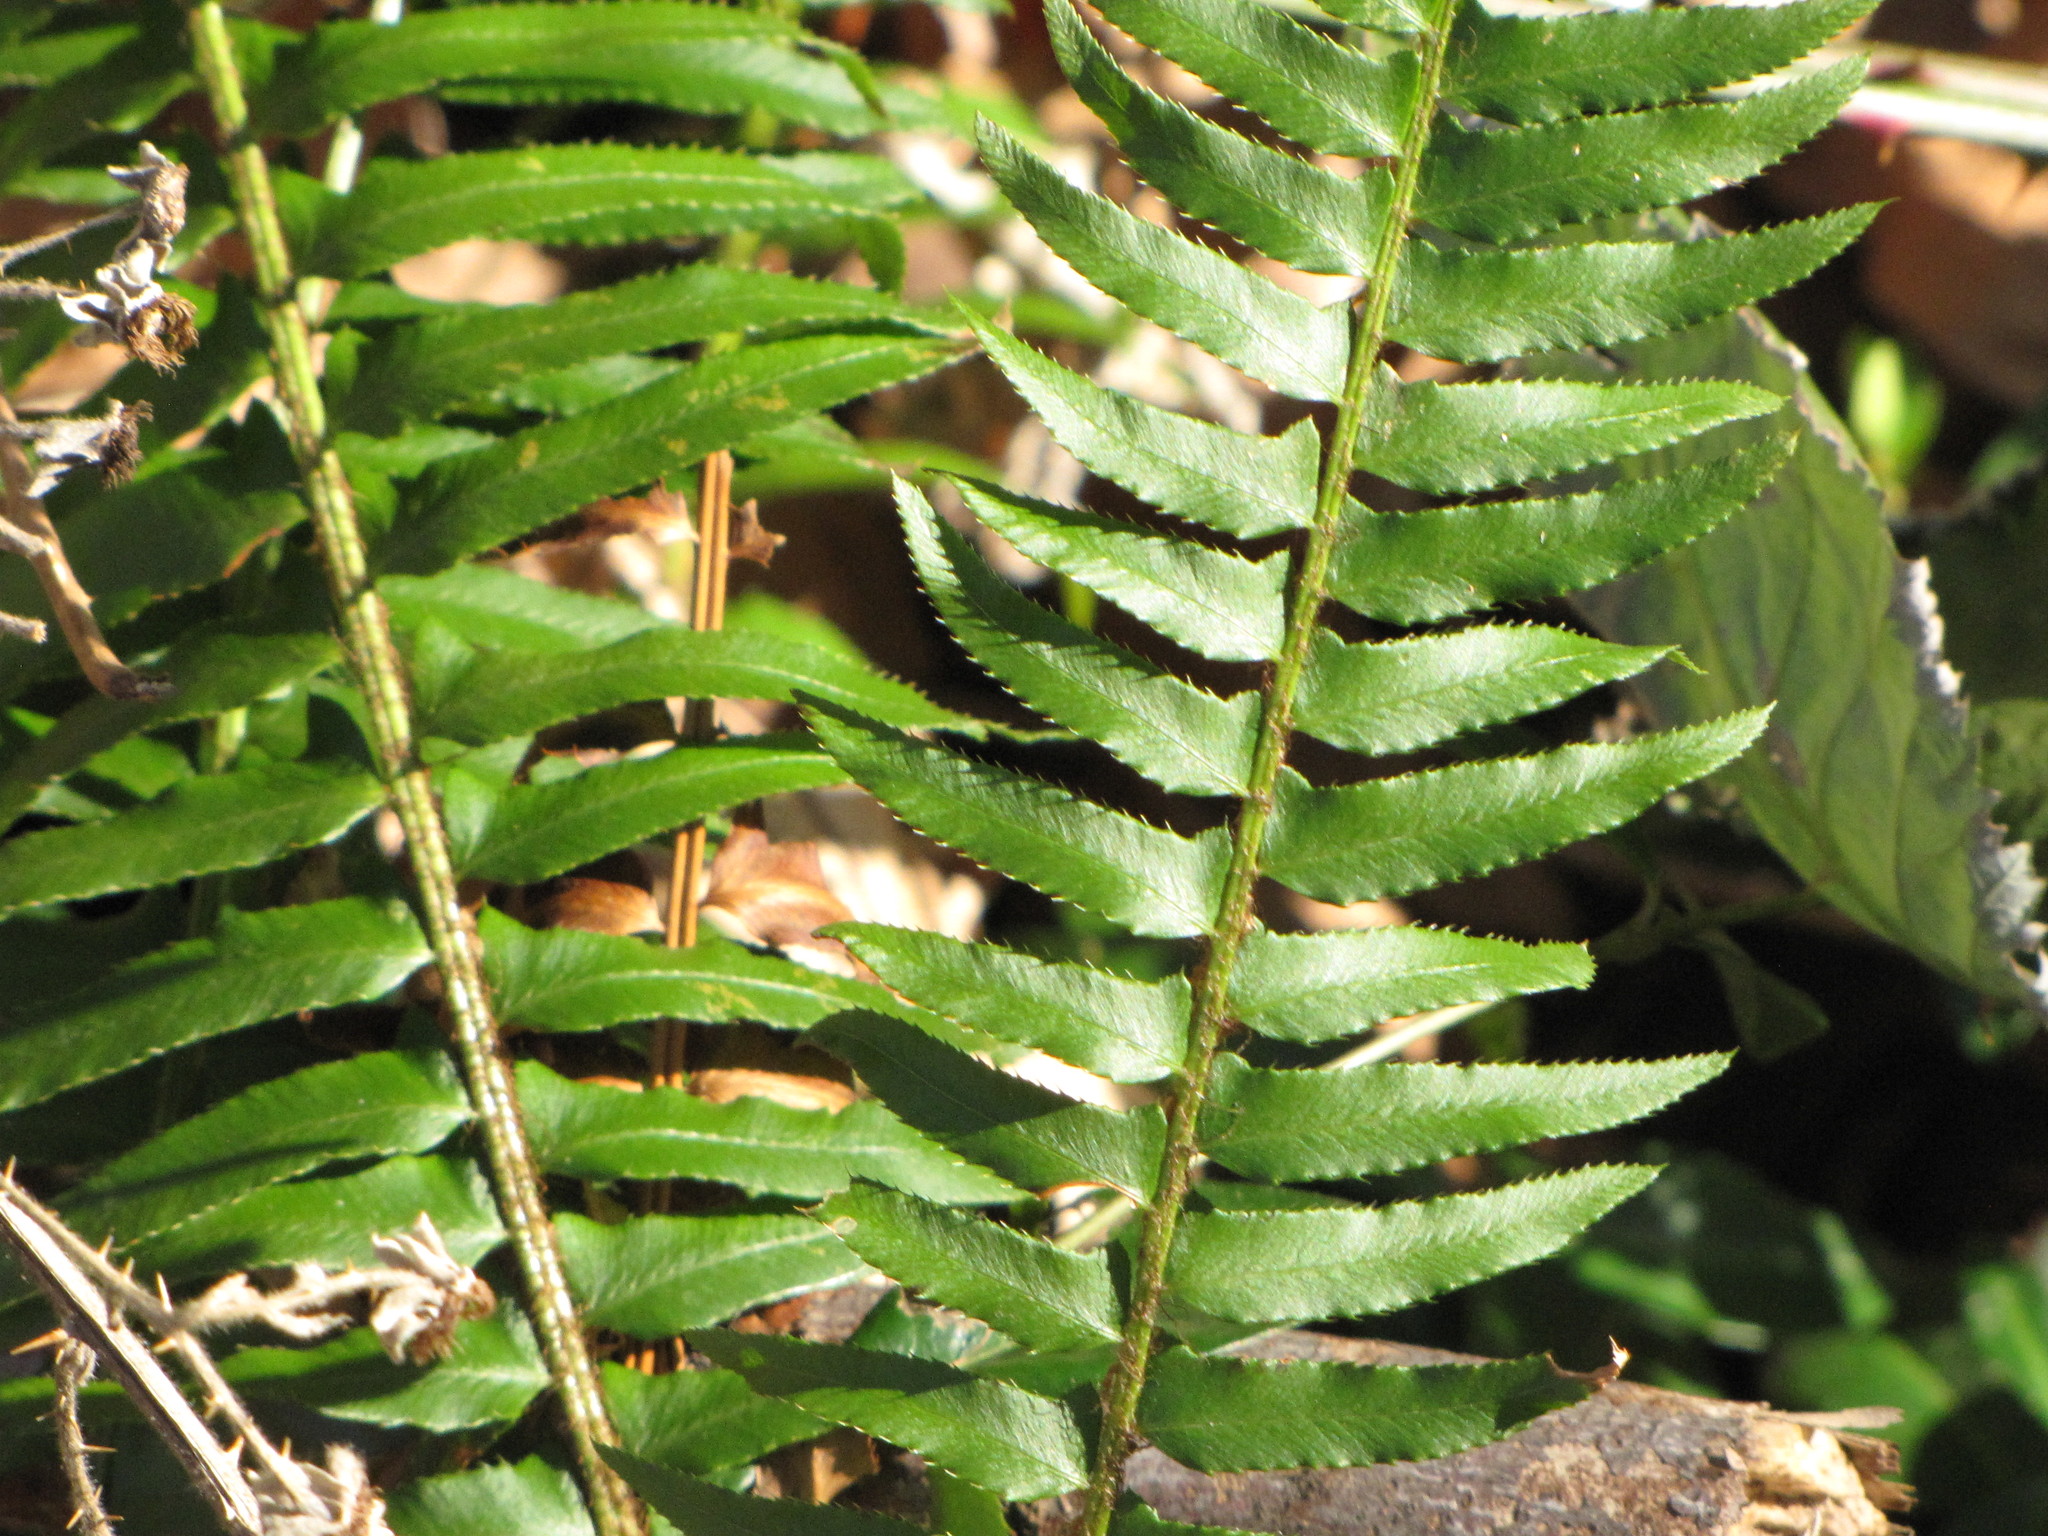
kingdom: Plantae
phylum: Tracheophyta
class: Polypodiopsida
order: Polypodiales
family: Dryopteridaceae
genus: Polystichum
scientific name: Polystichum munitum
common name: Western sword-fern
